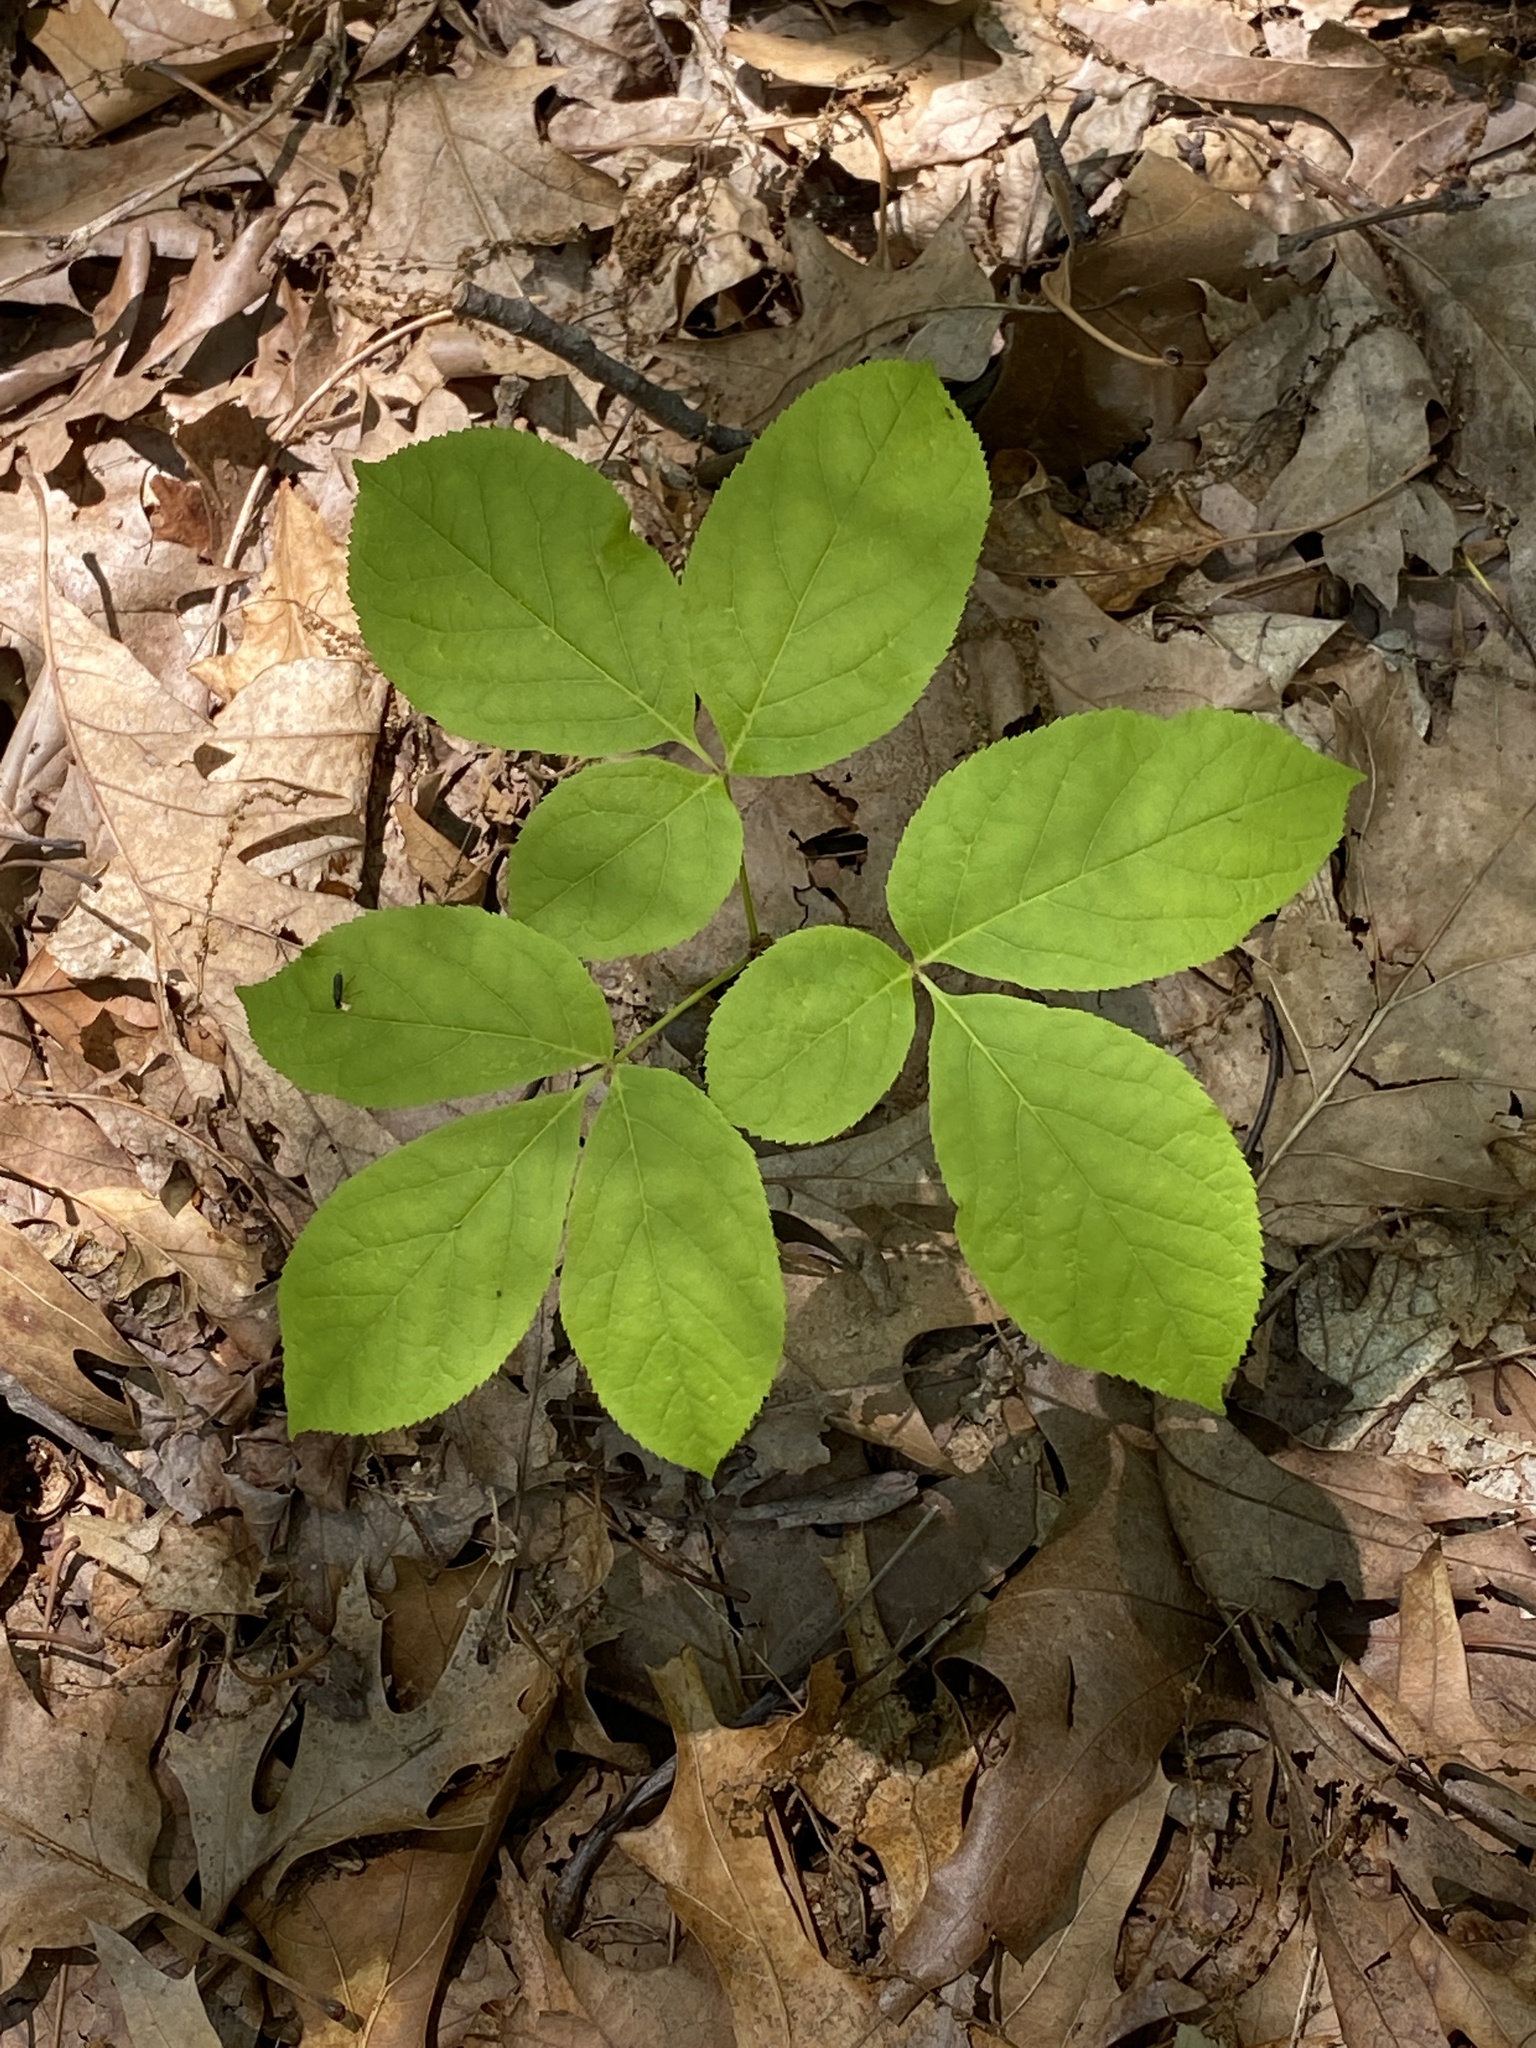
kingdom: Plantae
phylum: Tracheophyta
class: Magnoliopsida
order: Apiales
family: Araliaceae
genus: Aralia
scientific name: Aralia nudicaulis
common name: Wild sarsaparilla
